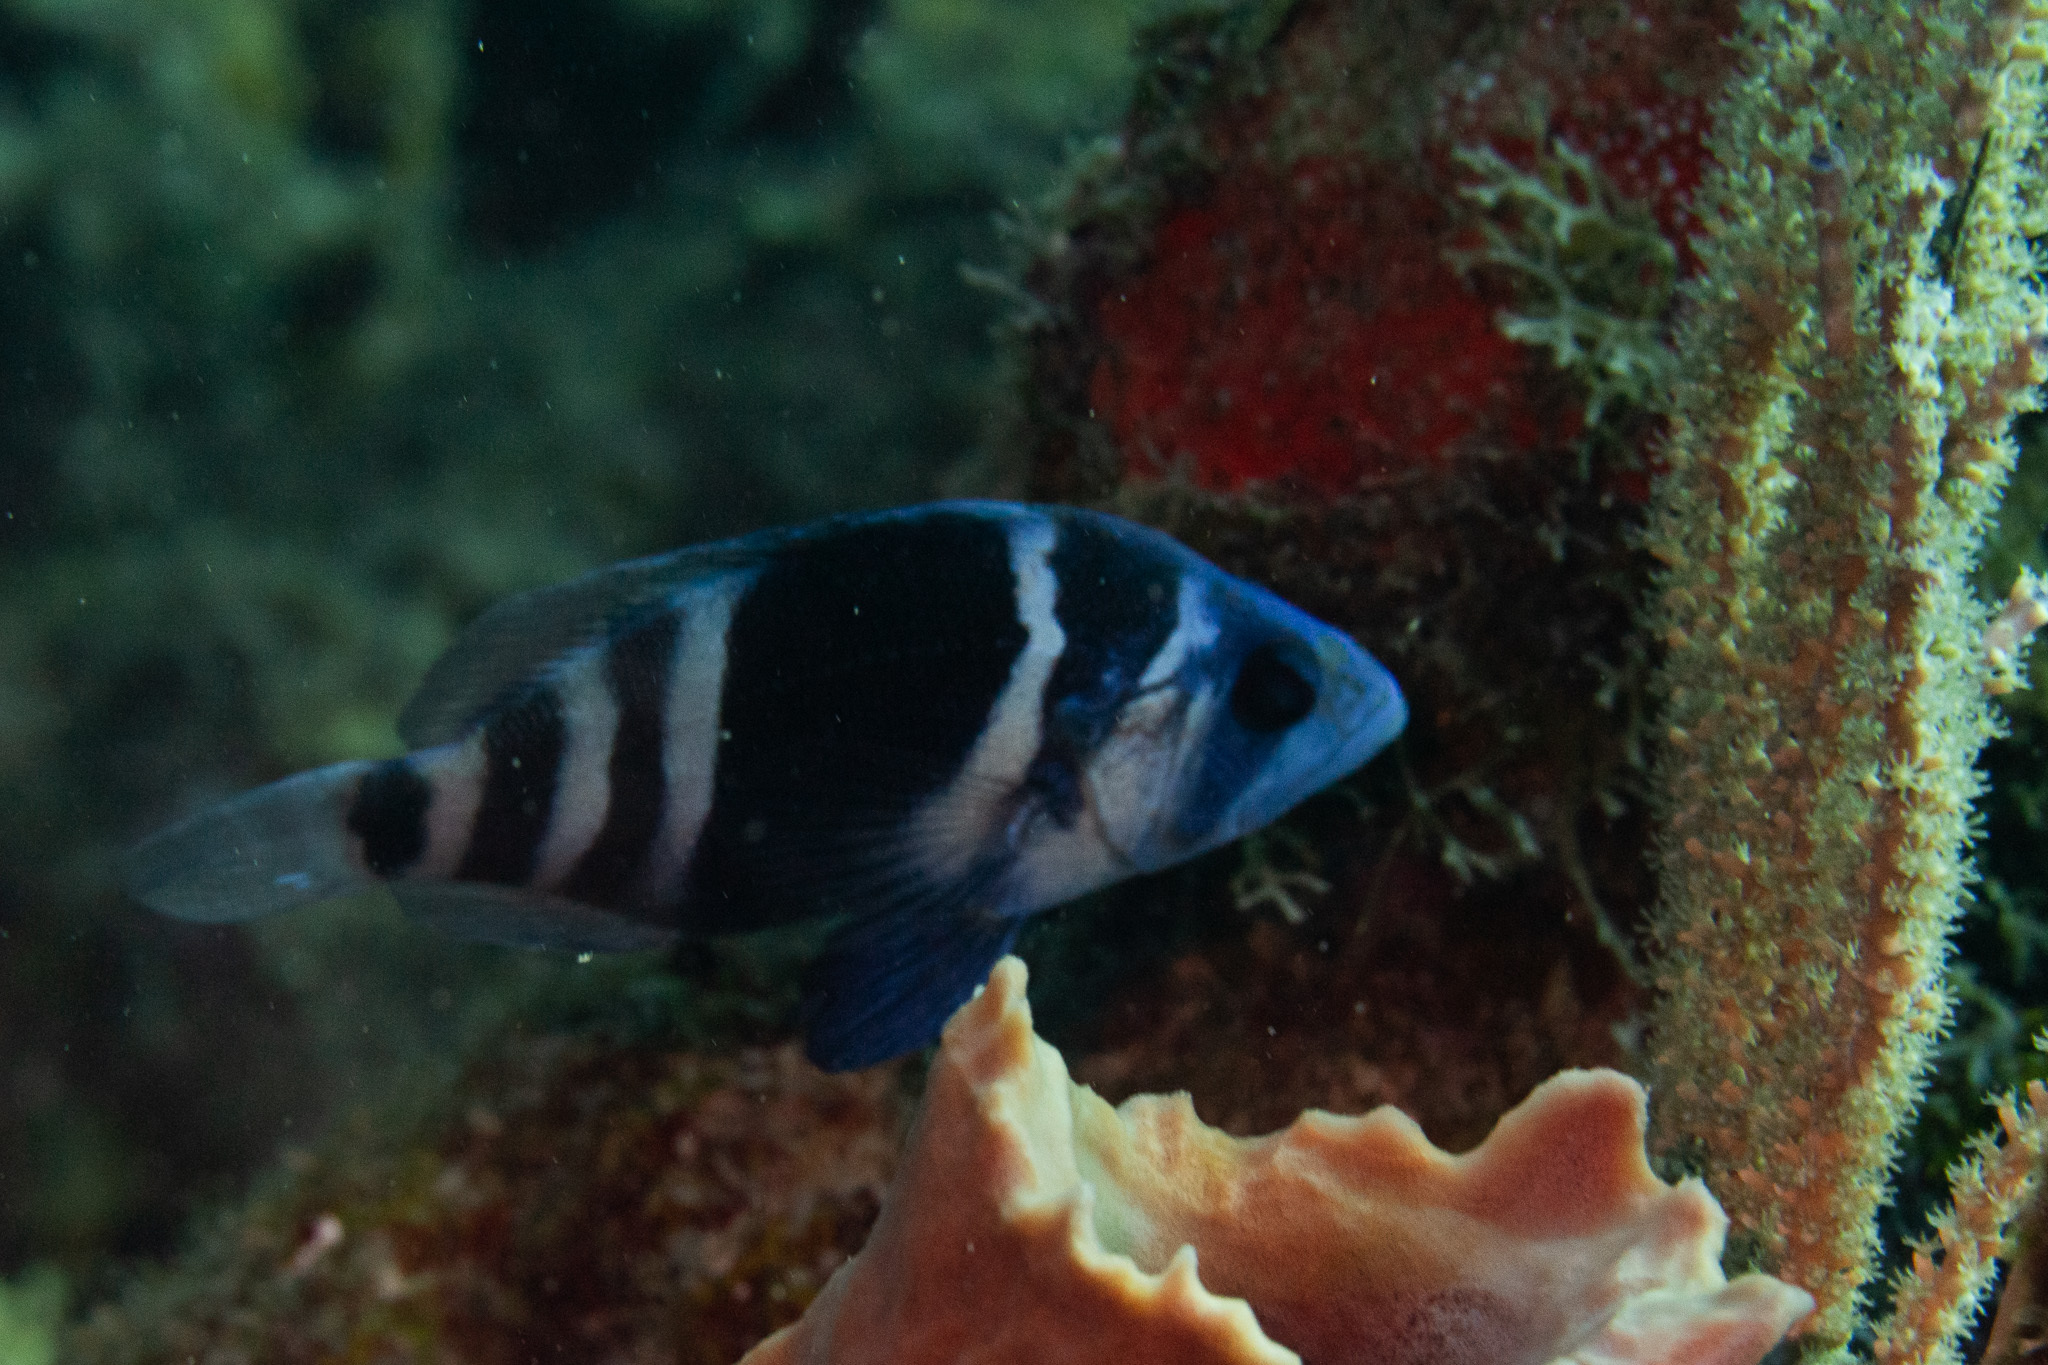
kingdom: Animalia
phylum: Chordata
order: Perciformes
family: Serranidae
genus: Hypoplectrus
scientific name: Hypoplectrus indigo
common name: Indigo hamlet
